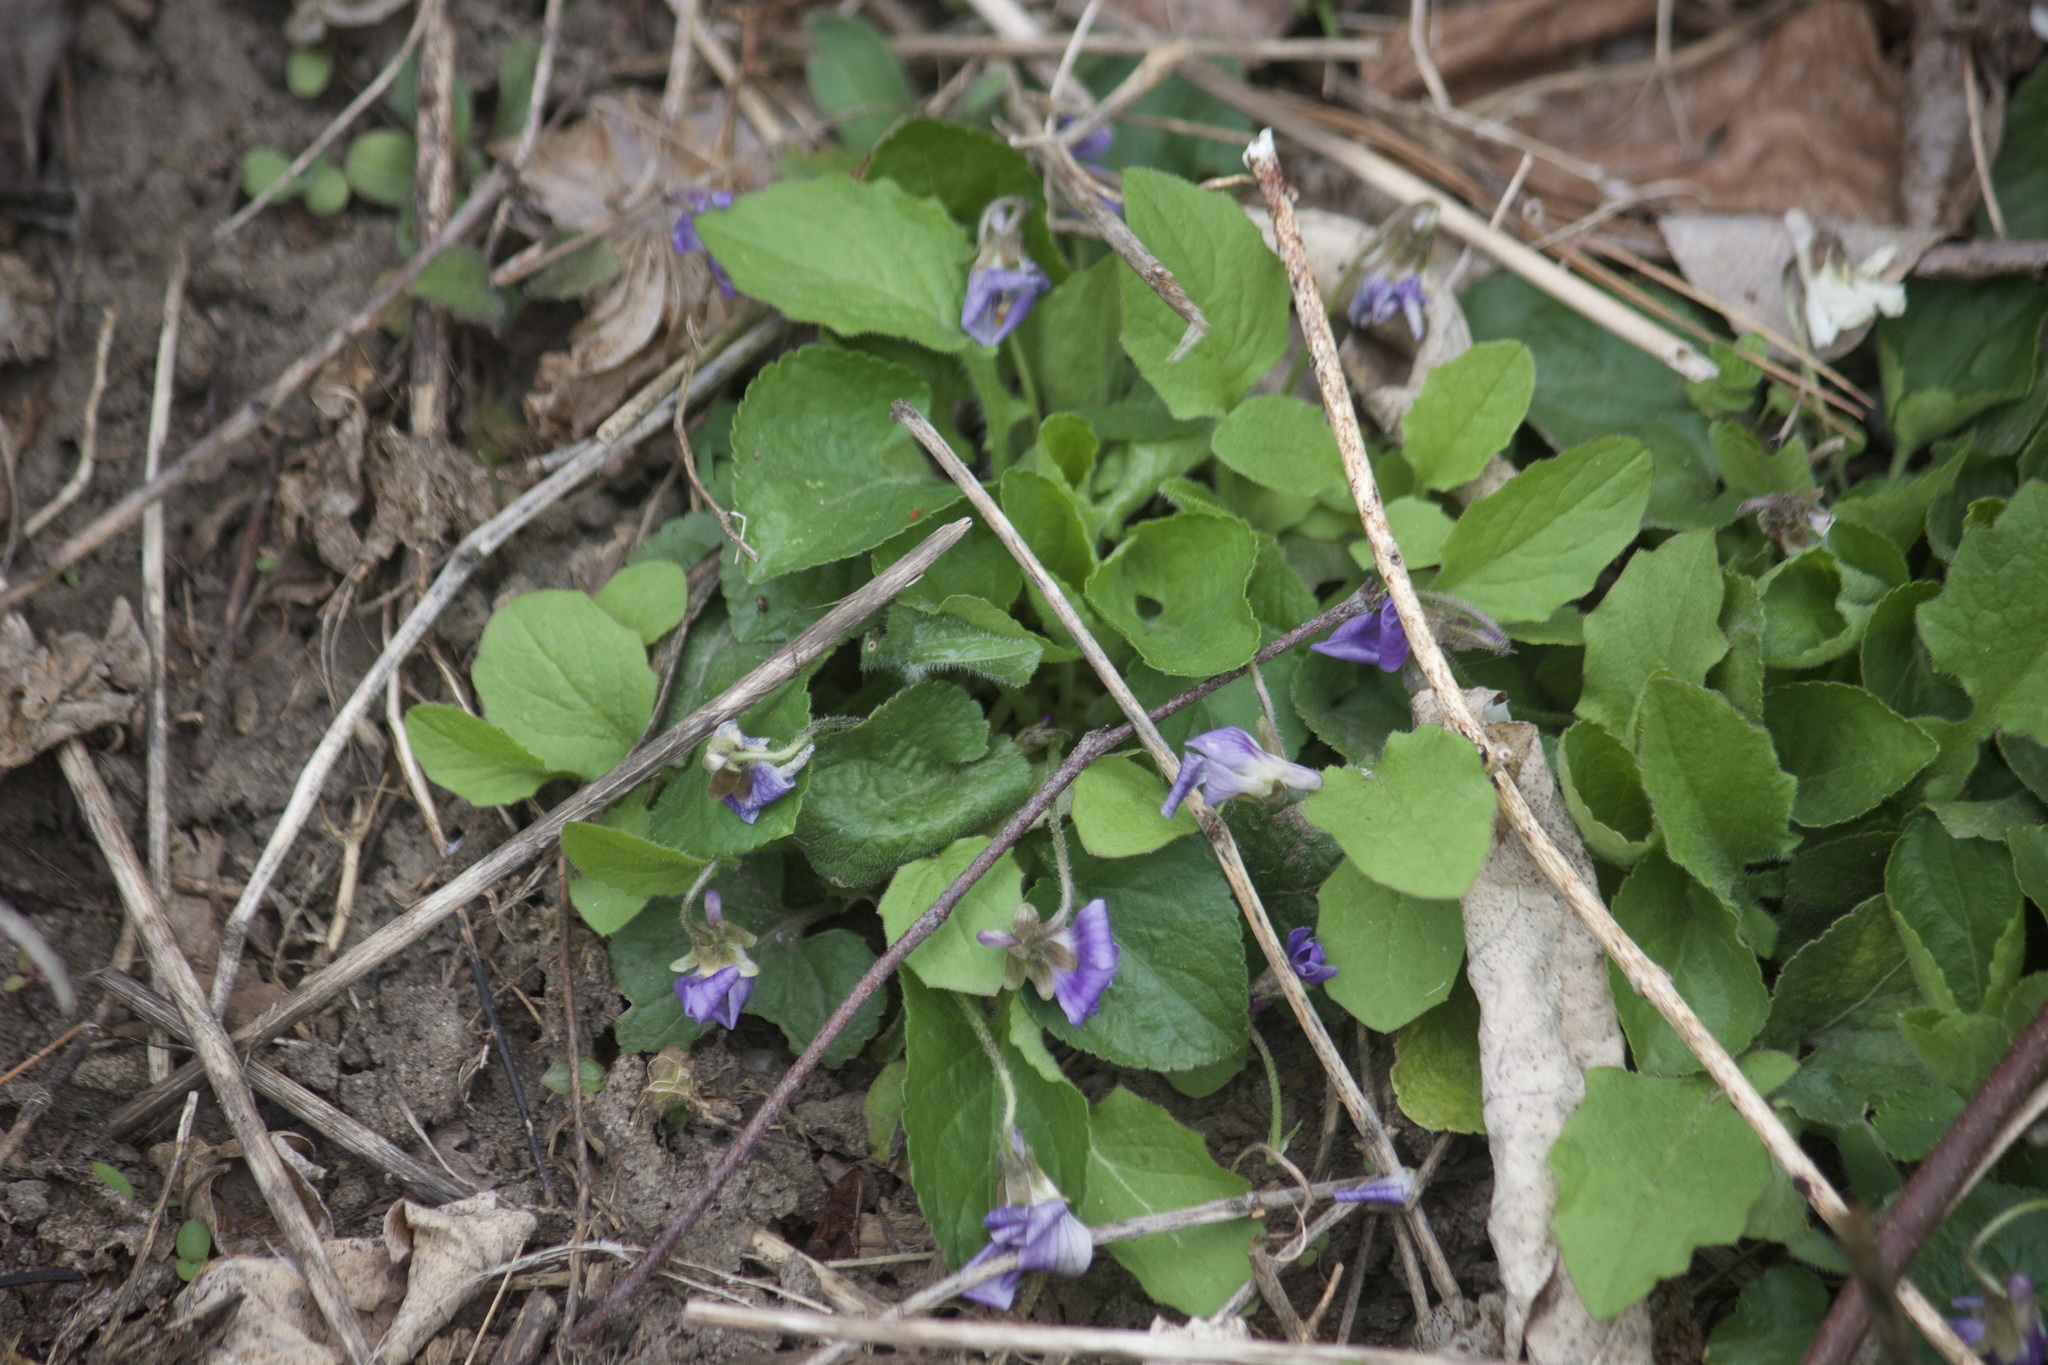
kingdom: Plantae
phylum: Tracheophyta
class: Magnoliopsida
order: Malpighiales
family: Violaceae
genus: Viola
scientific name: Viola odorata
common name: Sweet violet
